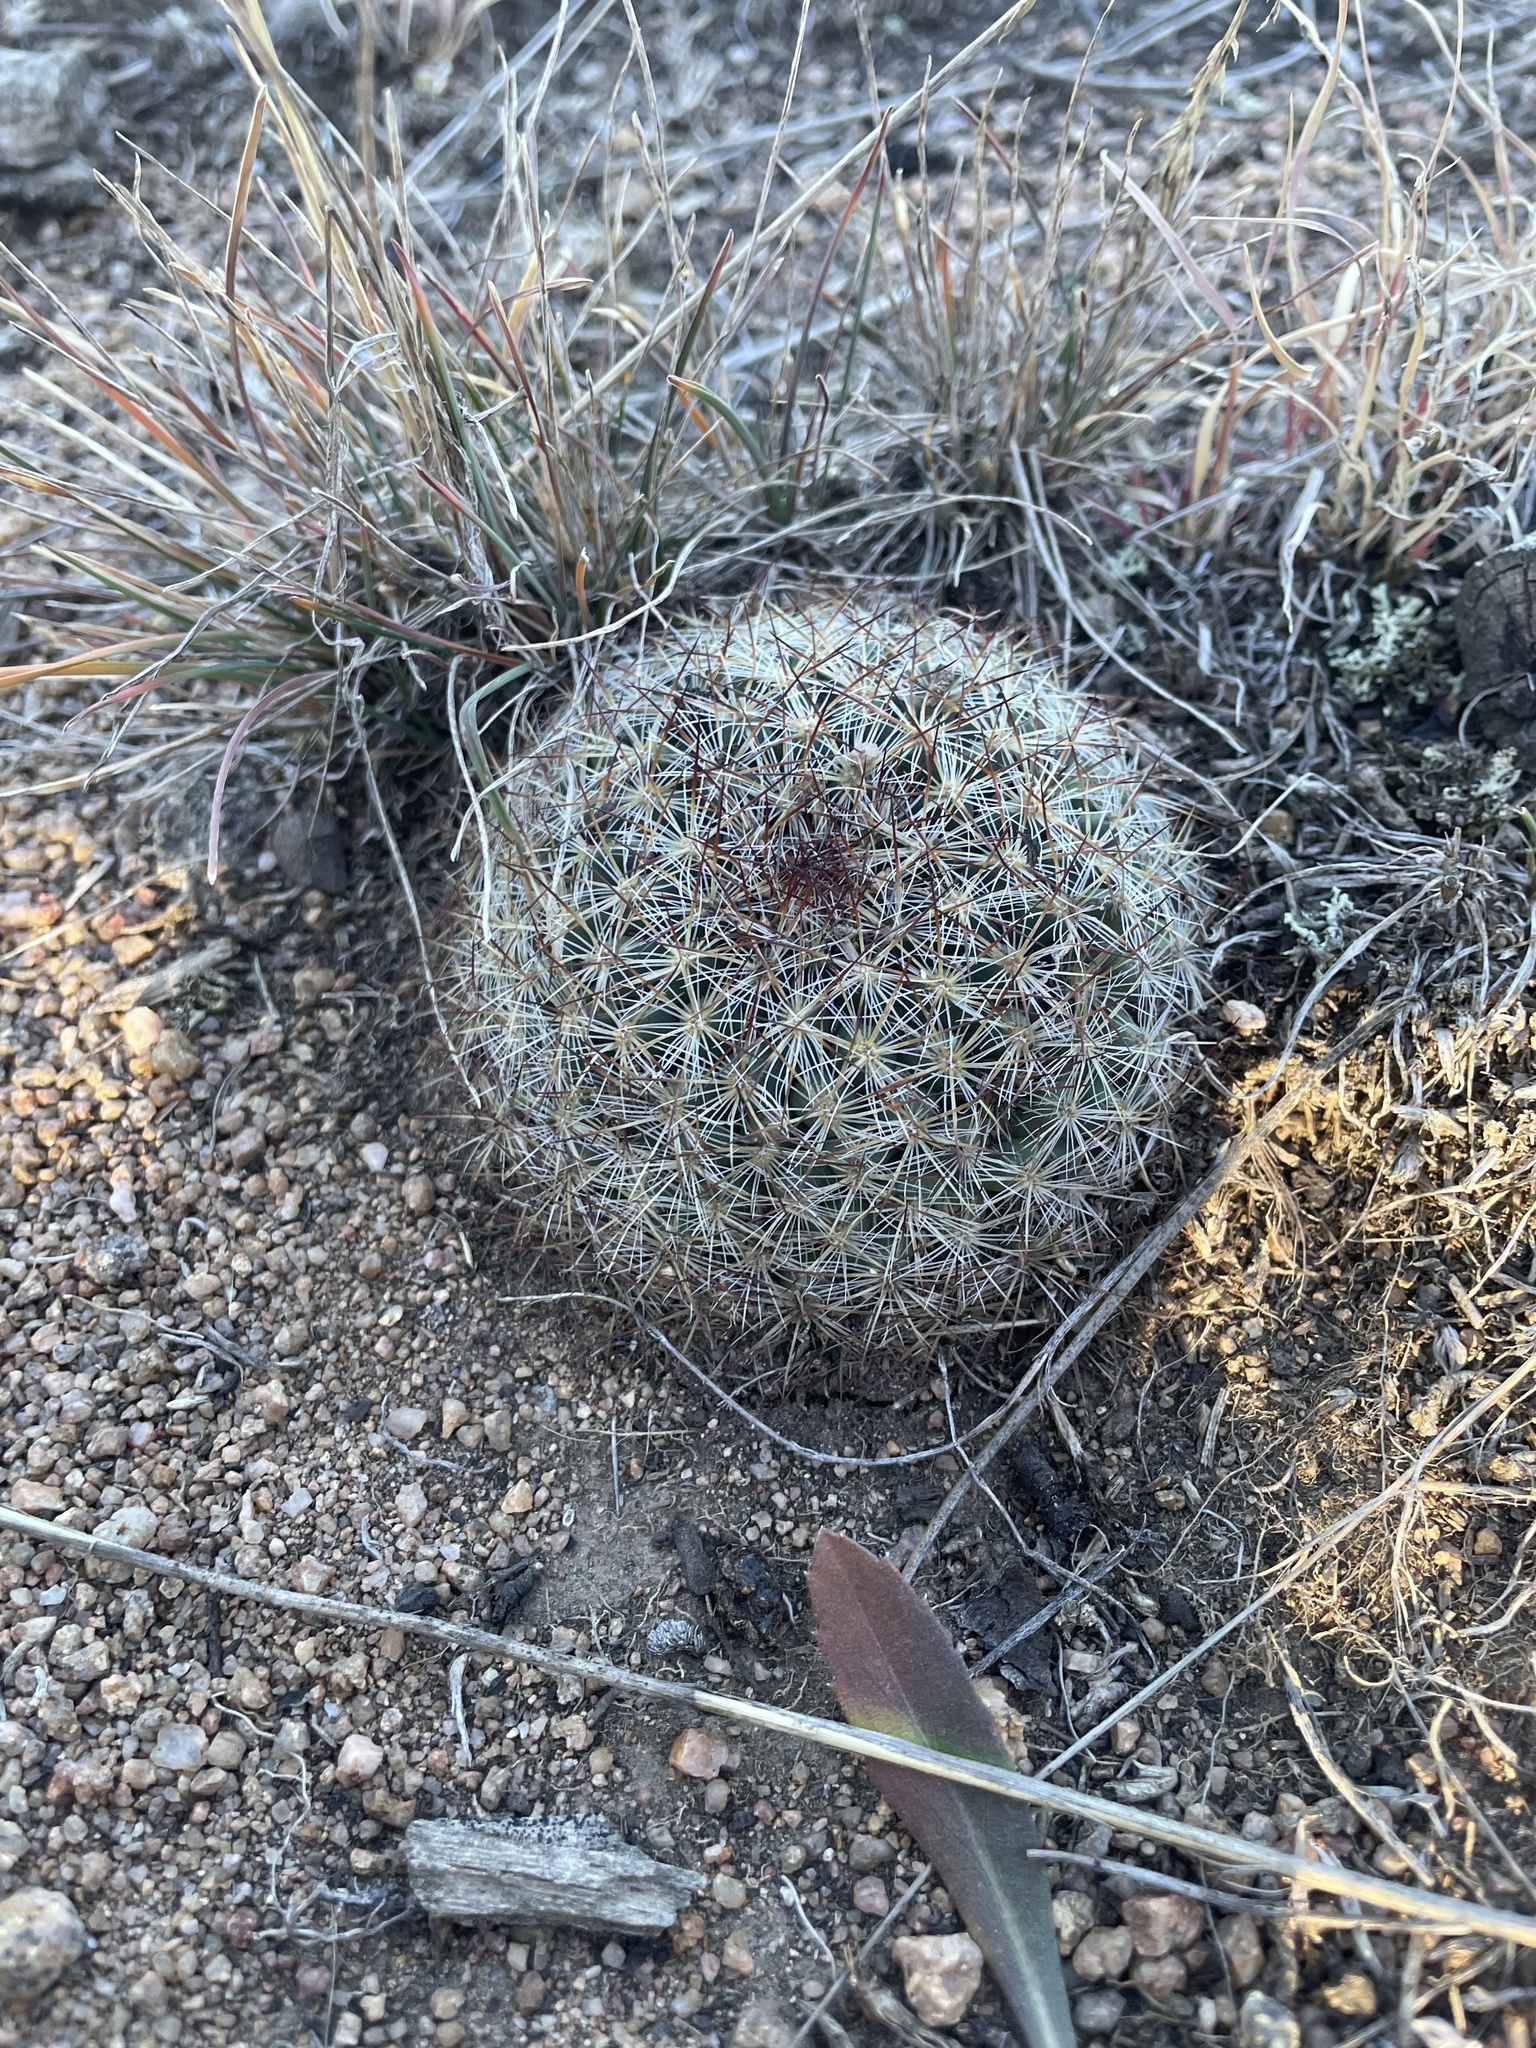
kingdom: Plantae
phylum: Tracheophyta
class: Magnoliopsida
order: Caryophyllales
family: Cactaceae
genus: Pediocactus
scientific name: Pediocactus simpsonii
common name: Simpson's hedgehog cactus
